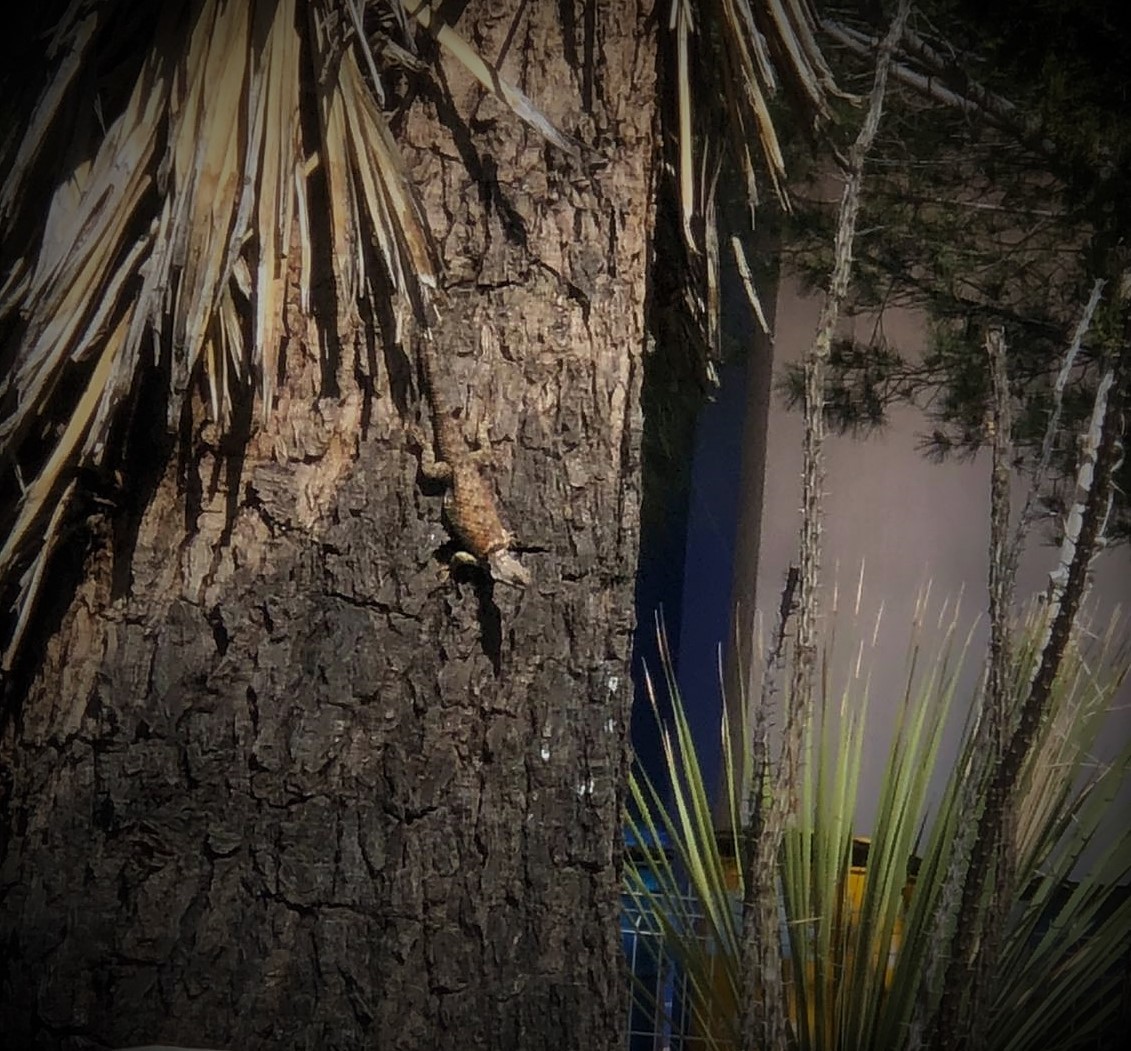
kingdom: Animalia
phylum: Chordata
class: Squamata
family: Phrynosomatidae
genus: Sceloporus
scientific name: Sceloporus torquatus
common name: Central plateau torquate lizard [melanogaster]
